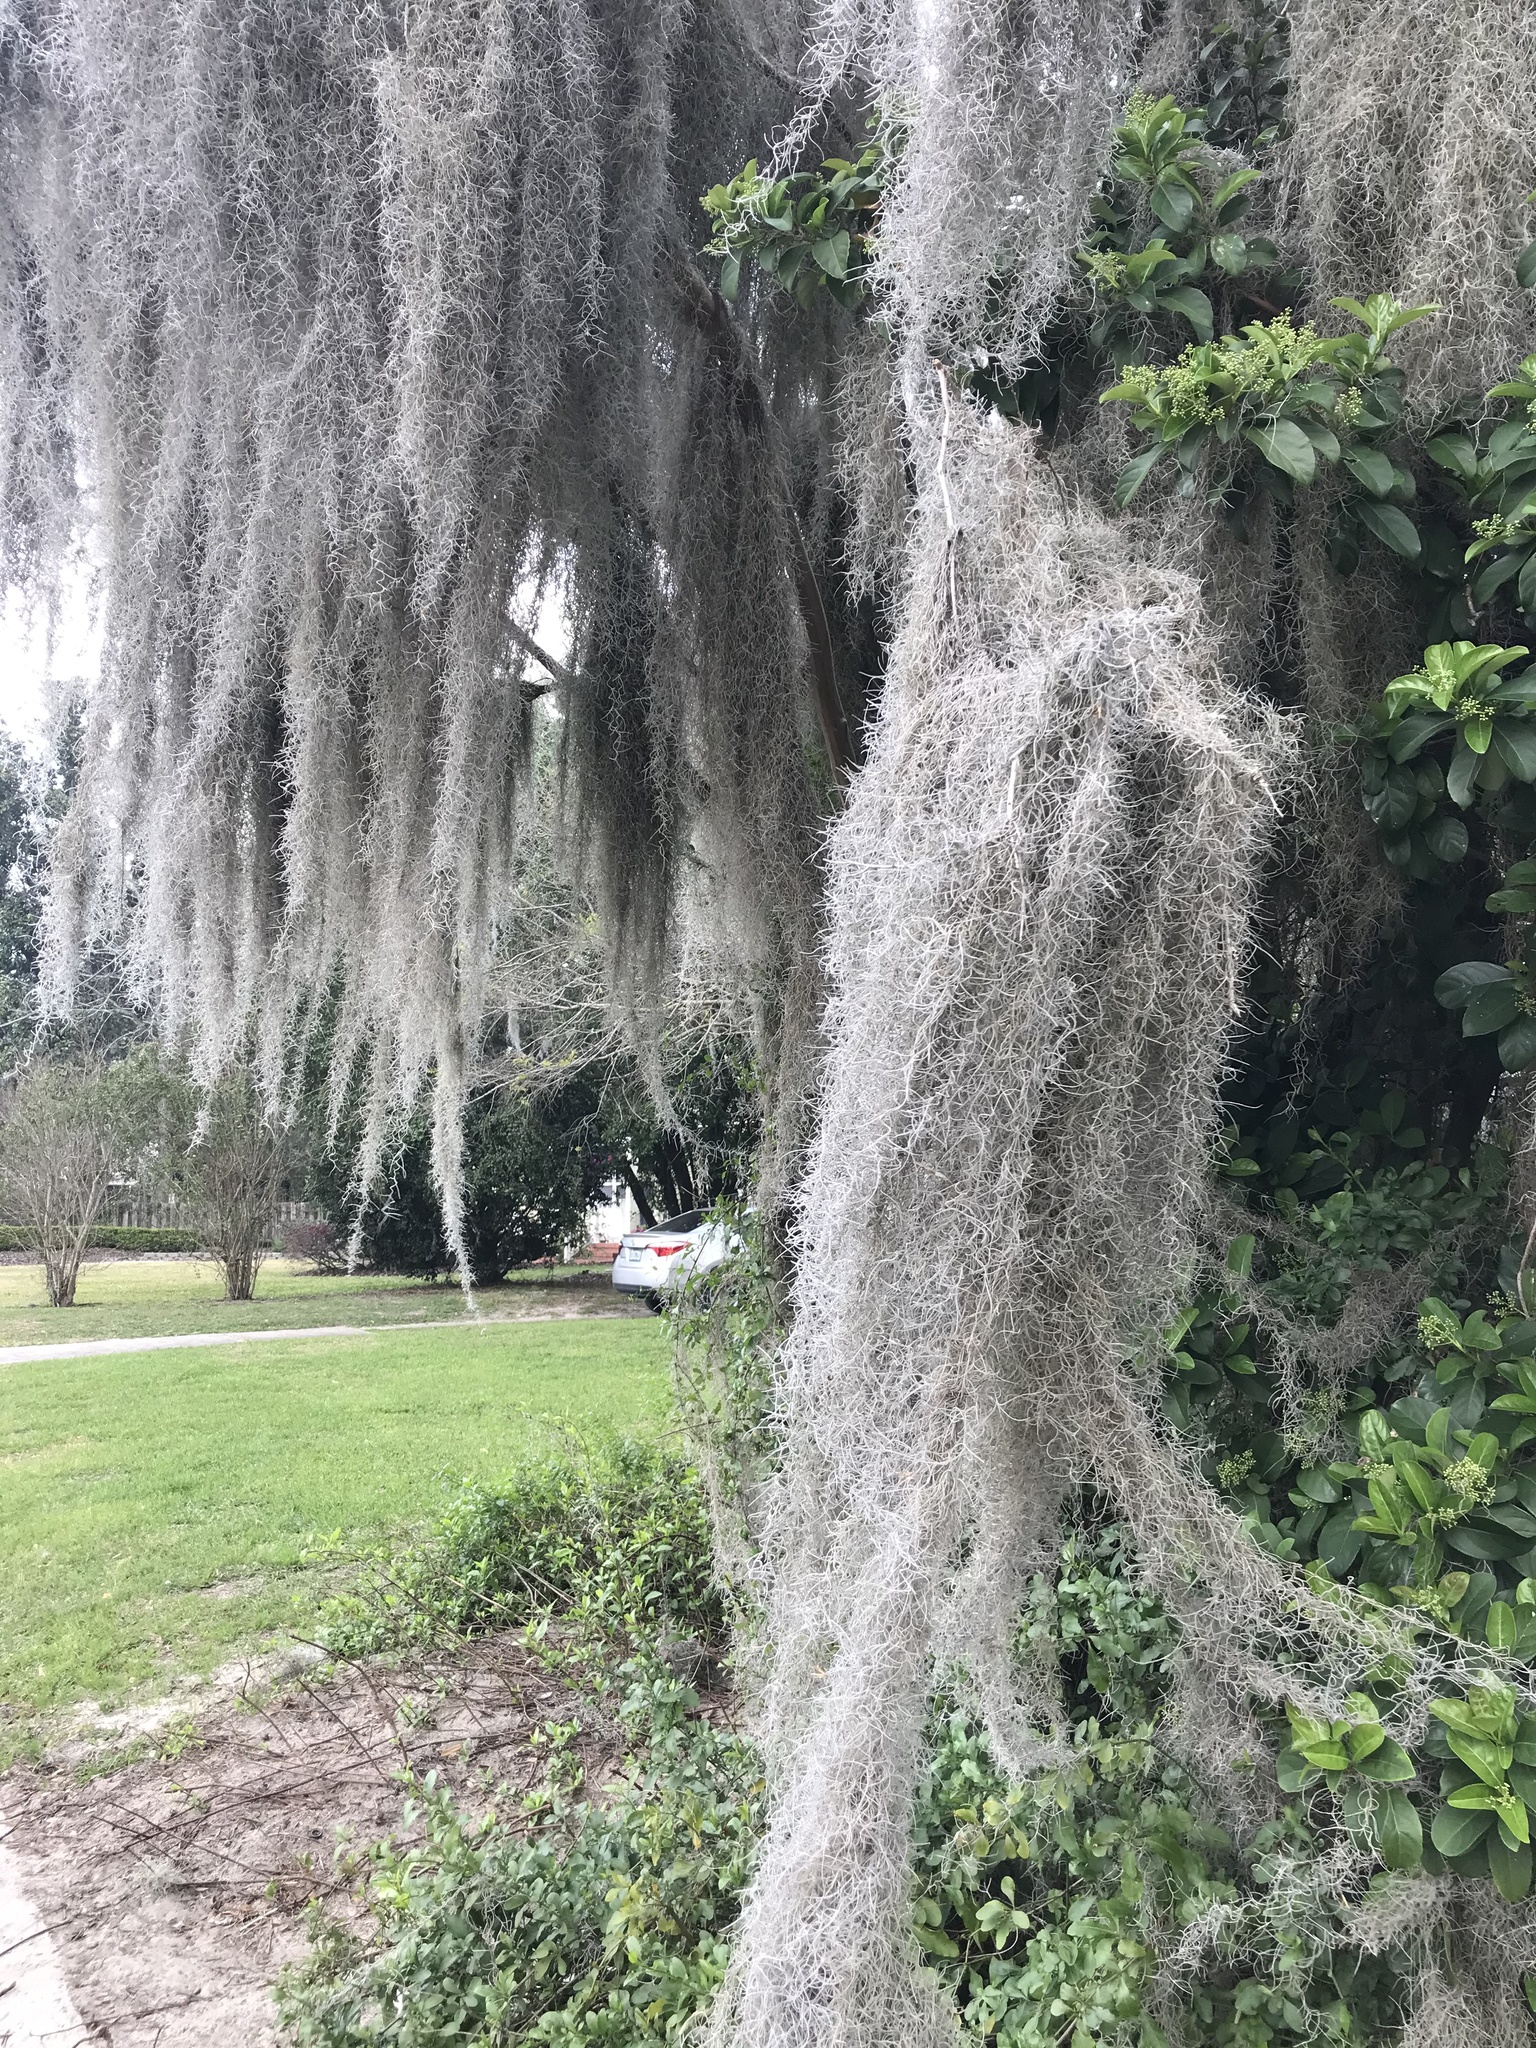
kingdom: Plantae
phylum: Tracheophyta
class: Liliopsida
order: Poales
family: Bromeliaceae
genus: Tillandsia
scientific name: Tillandsia usneoides
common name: Spanish moss
